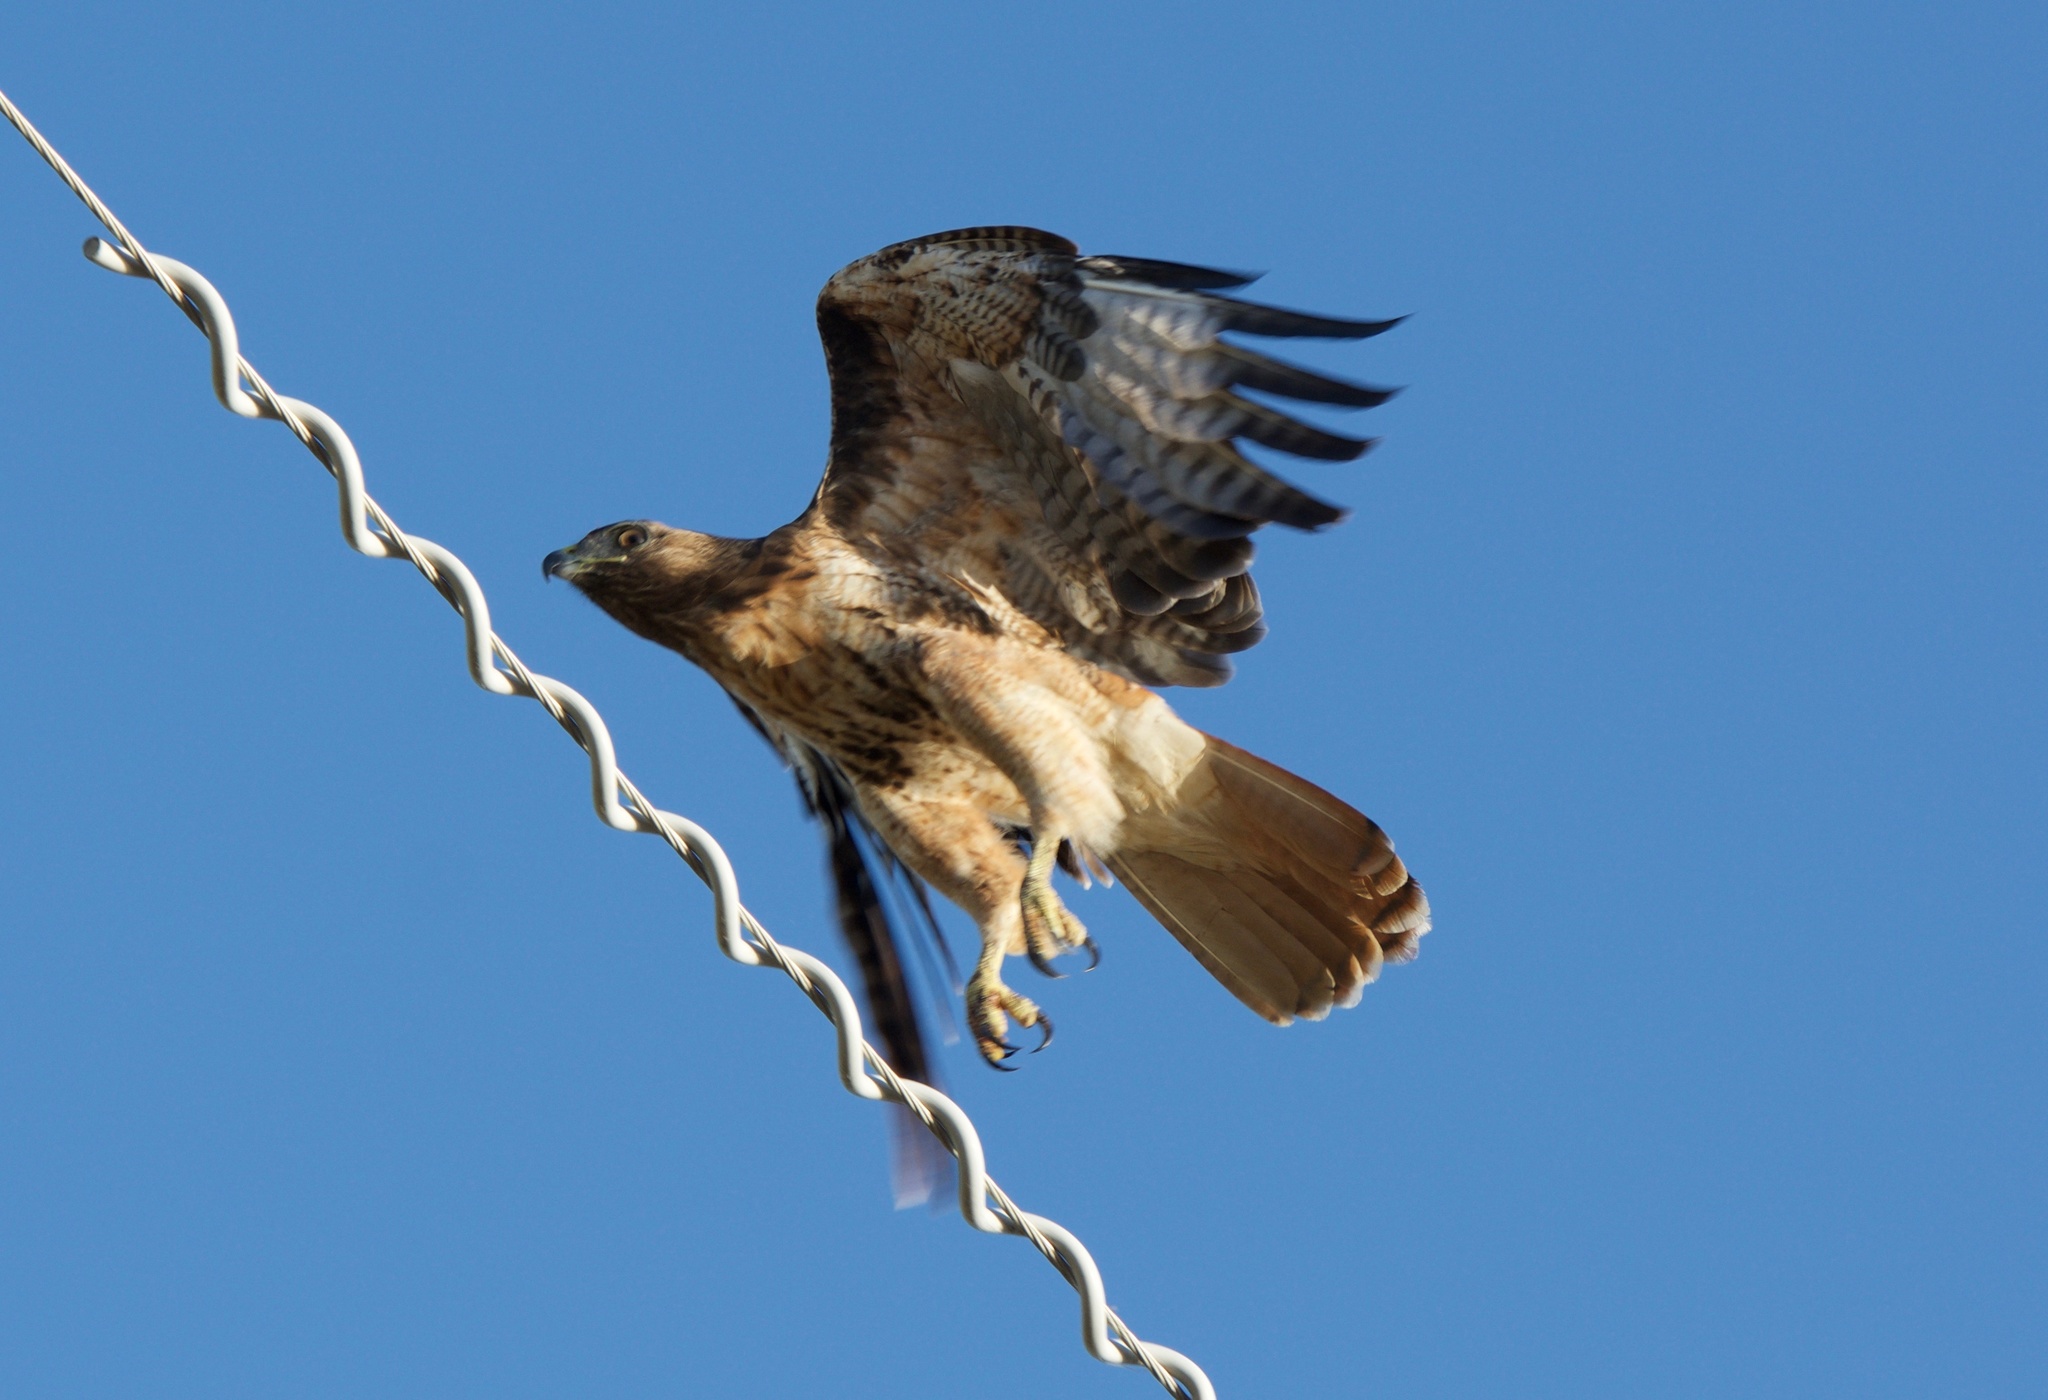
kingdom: Animalia
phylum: Chordata
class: Aves
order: Accipitriformes
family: Accipitridae
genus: Buteo
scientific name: Buteo jamaicensis
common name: Red-tailed hawk
